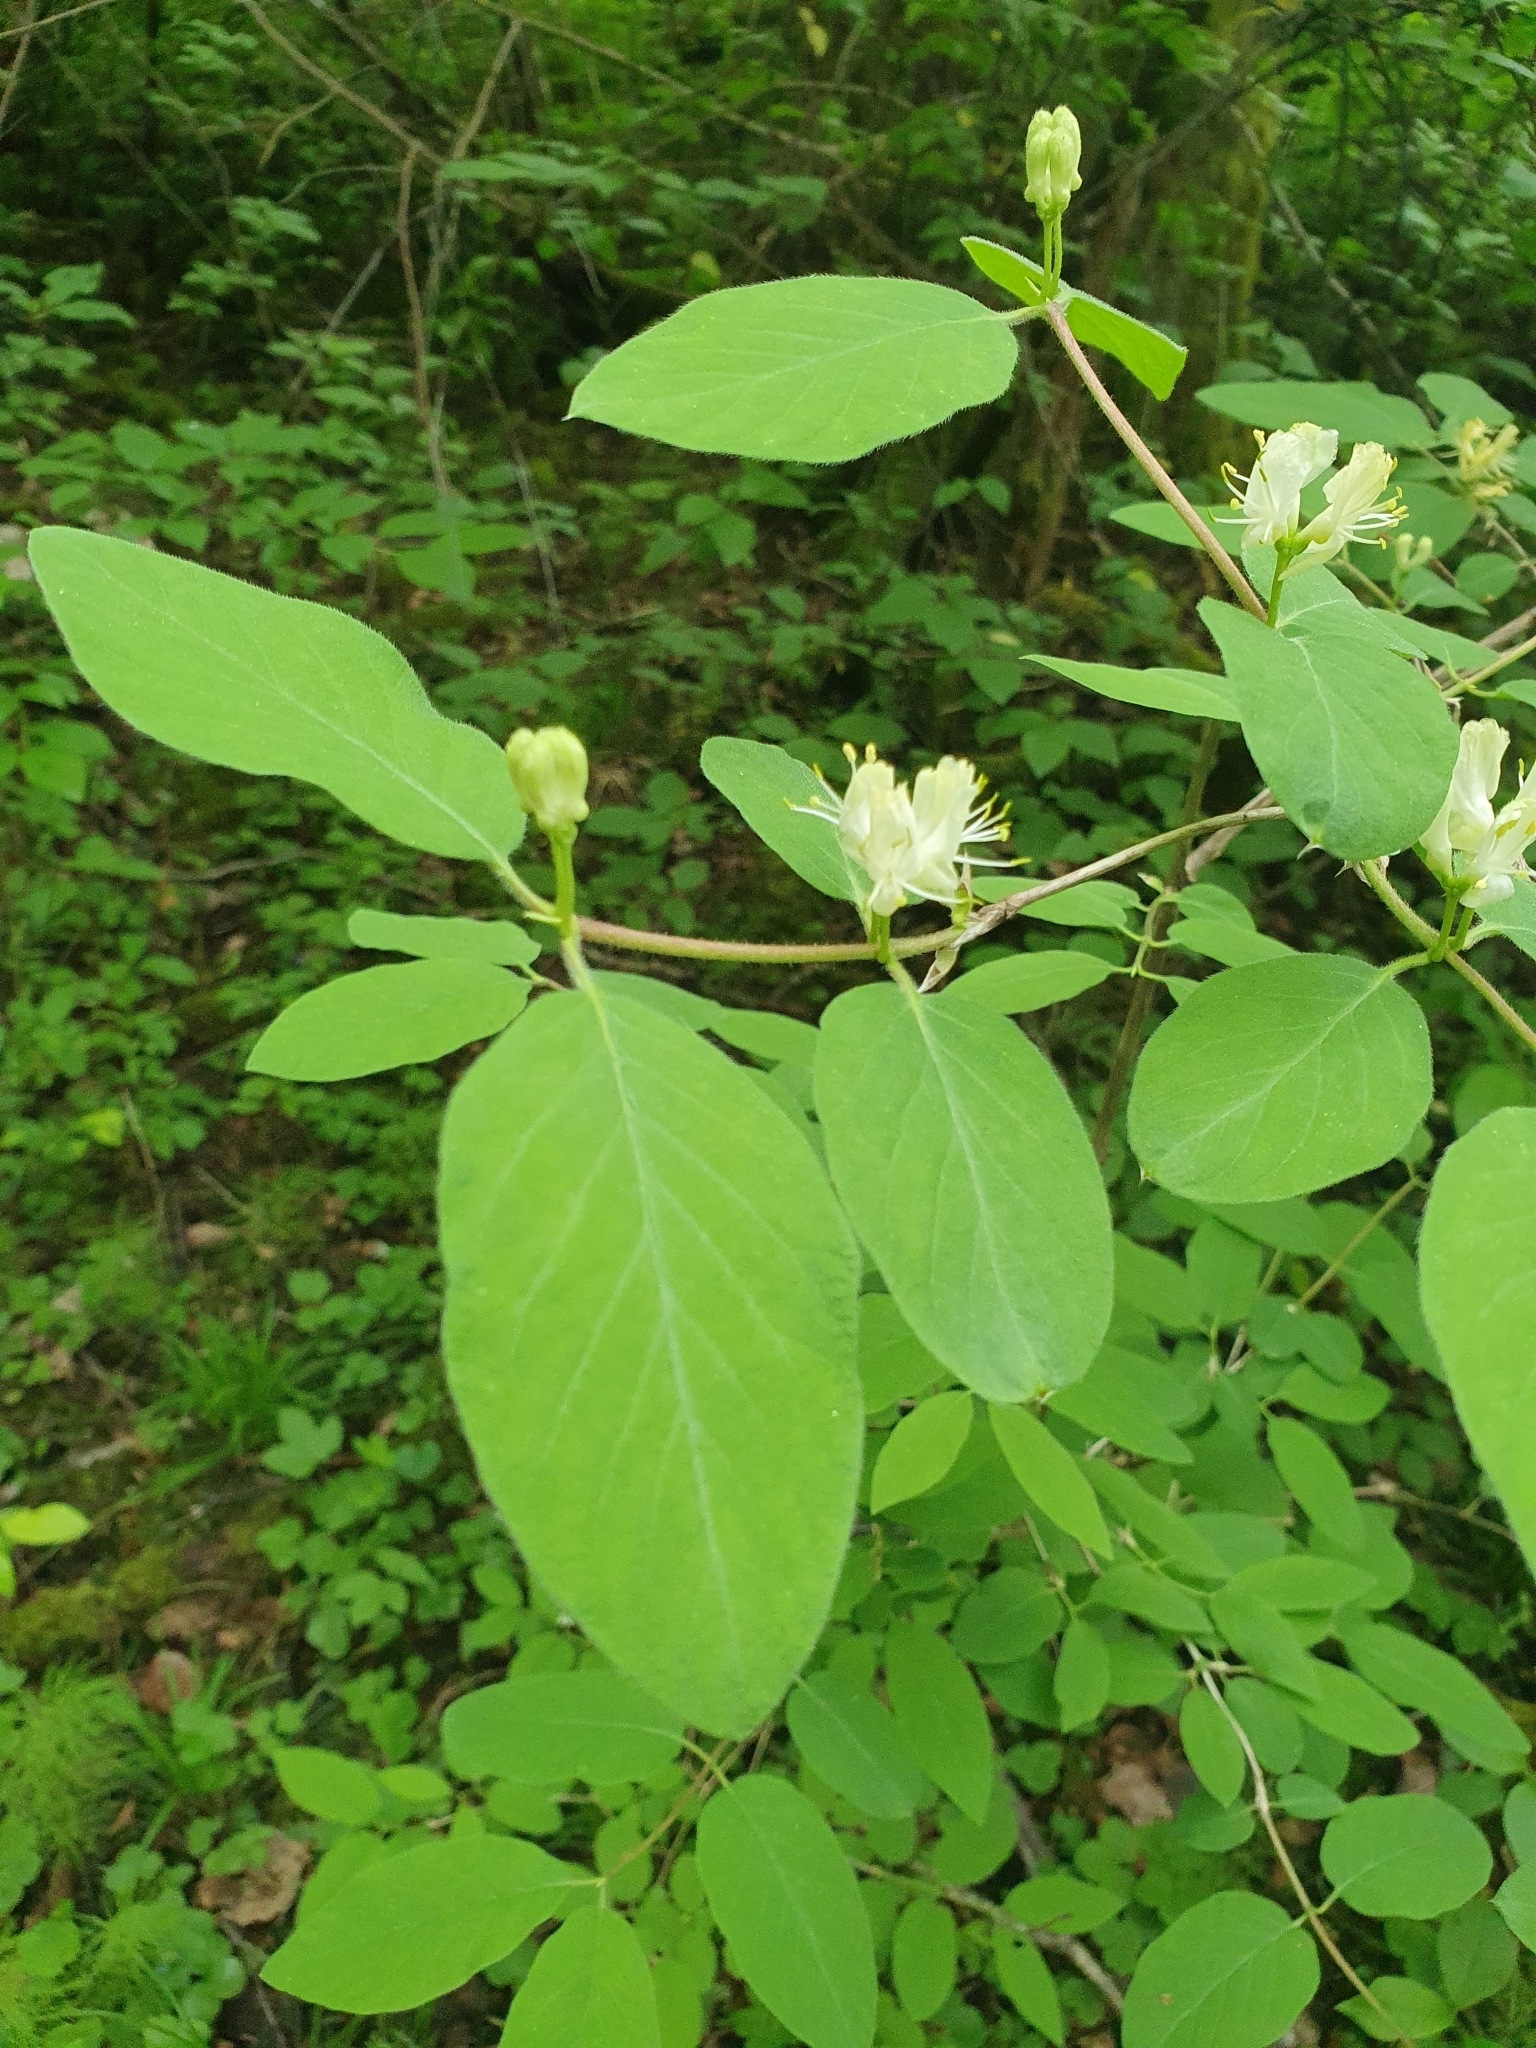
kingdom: Plantae
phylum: Tracheophyta
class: Magnoliopsida
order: Dipsacales
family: Caprifoliaceae
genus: Lonicera
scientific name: Lonicera xylosteum
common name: Fly honeysuckle
